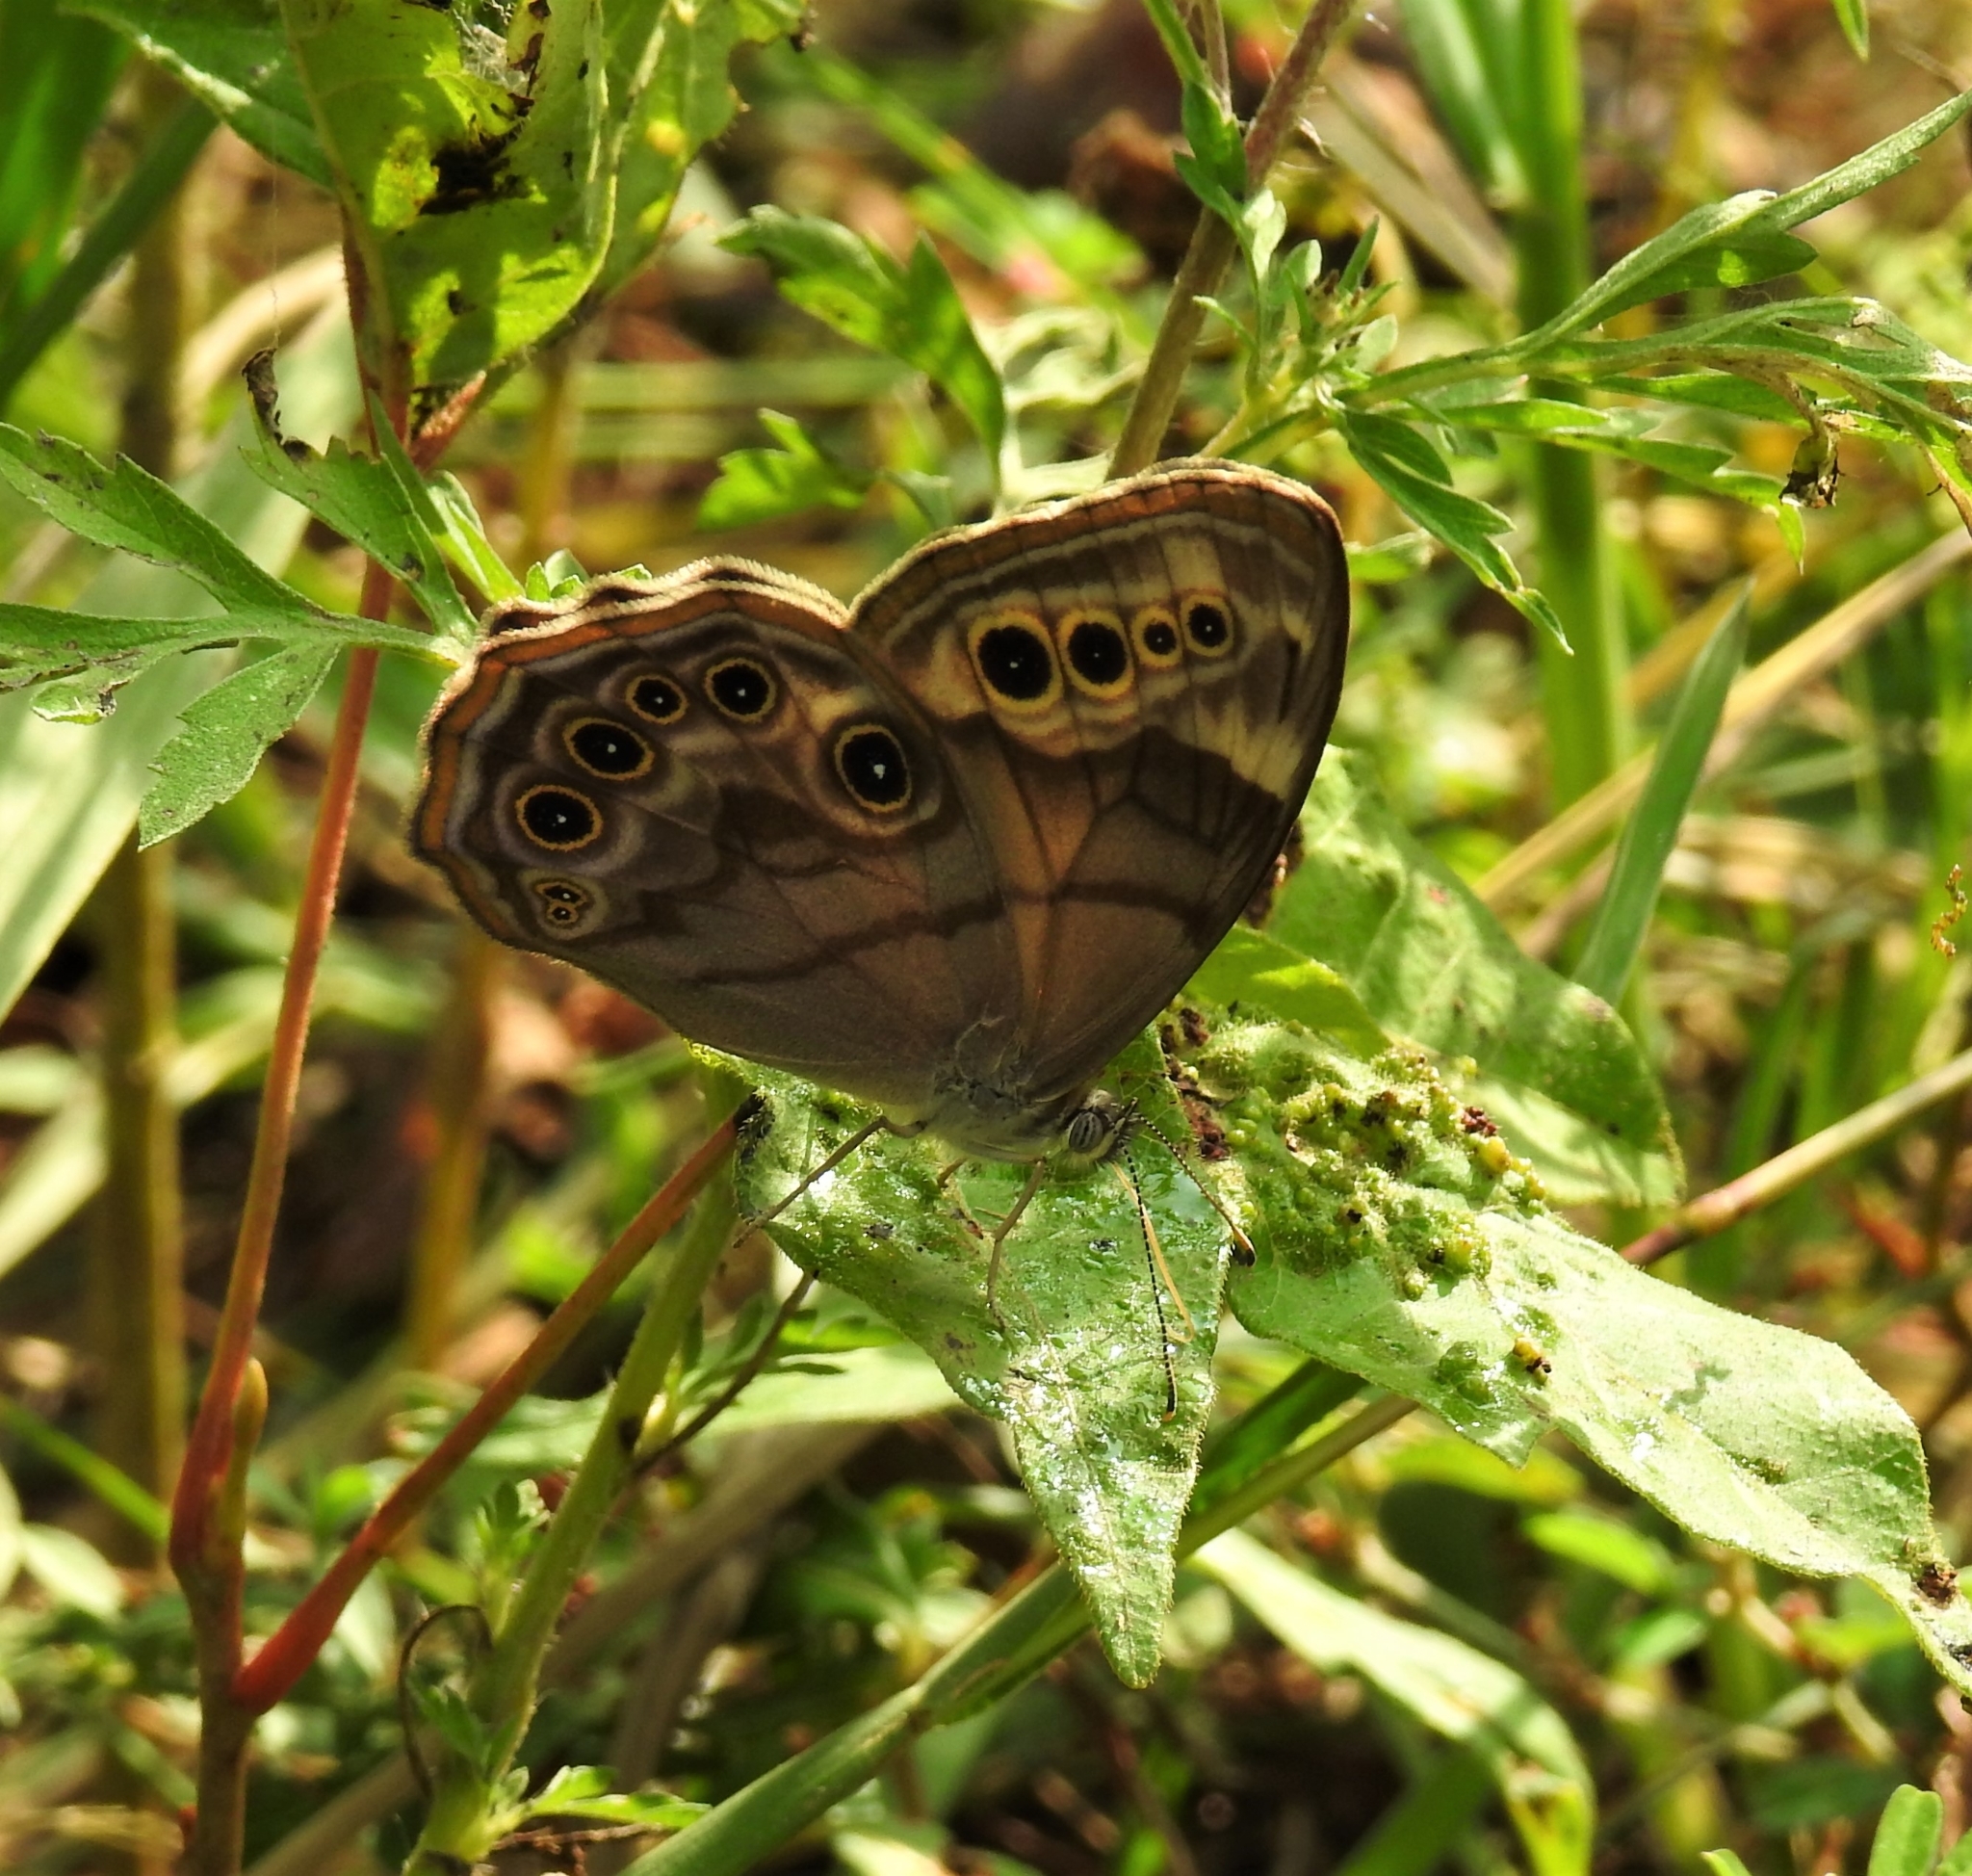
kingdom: Animalia
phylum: Arthropoda
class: Insecta
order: Lepidoptera
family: Nymphalidae
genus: Lethe
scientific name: Lethe anthedon
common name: Northern pearly-eye
